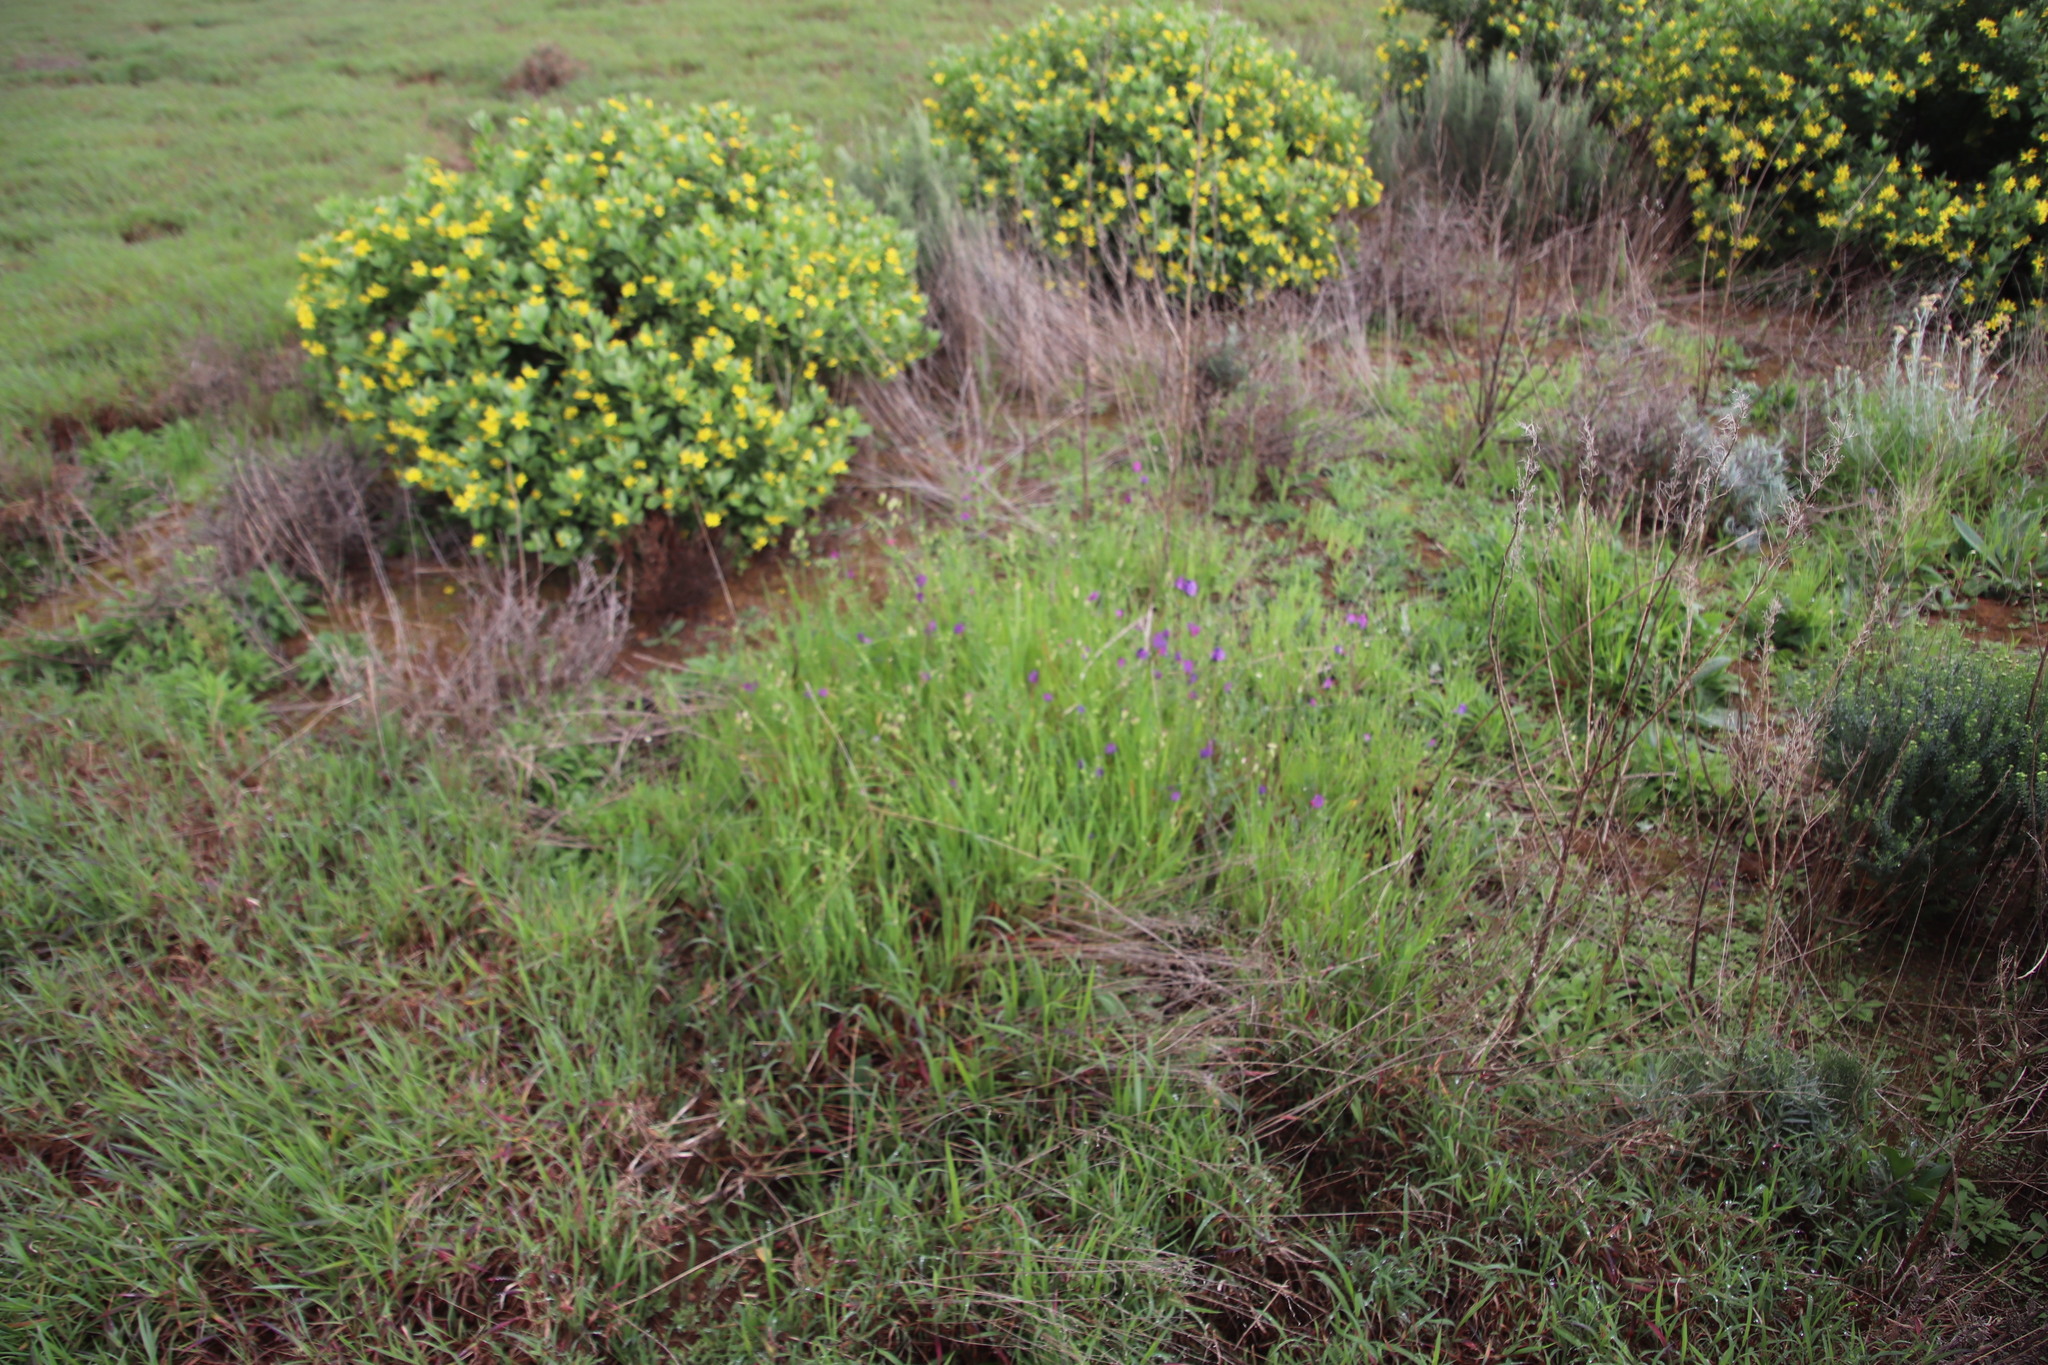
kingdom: Plantae
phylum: Tracheophyta
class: Liliopsida
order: Poales
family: Poaceae
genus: Briza
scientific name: Briza maxima
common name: Big quakinggrass
